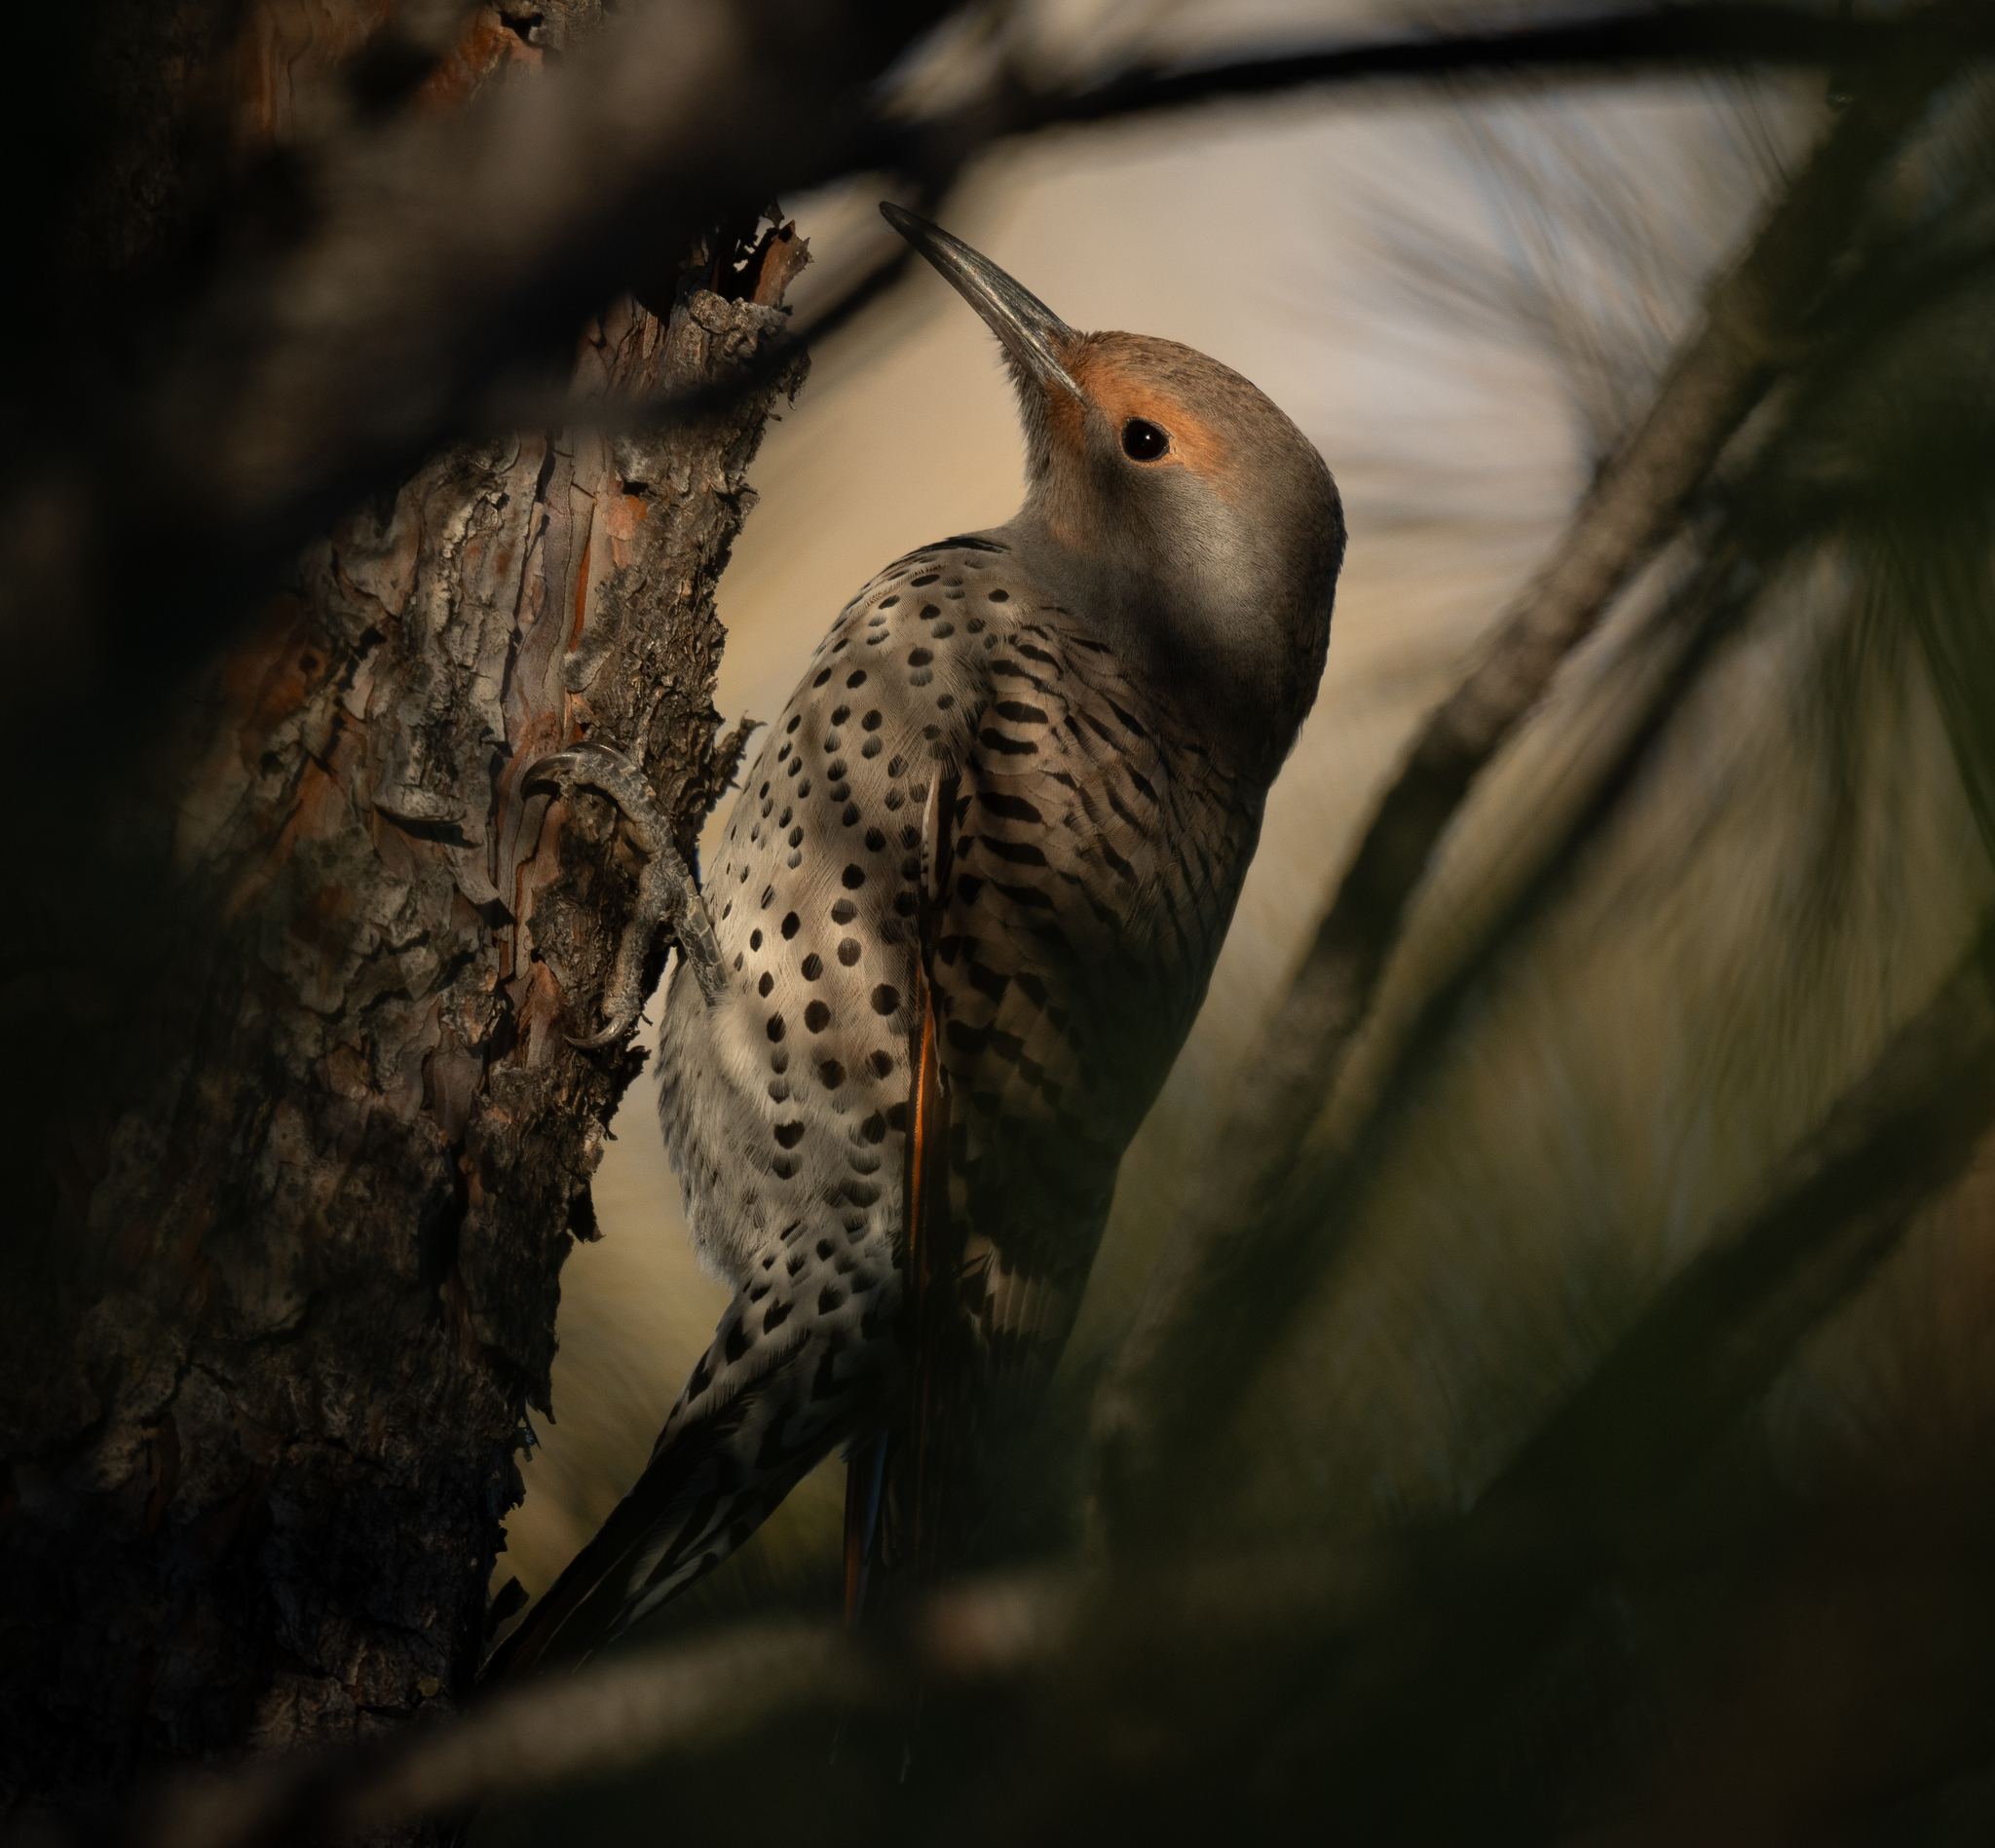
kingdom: Animalia
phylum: Chordata
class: Aves
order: Piciformes
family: Picidae
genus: Colaptes
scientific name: Colaptes auratus
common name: Northern flicker
